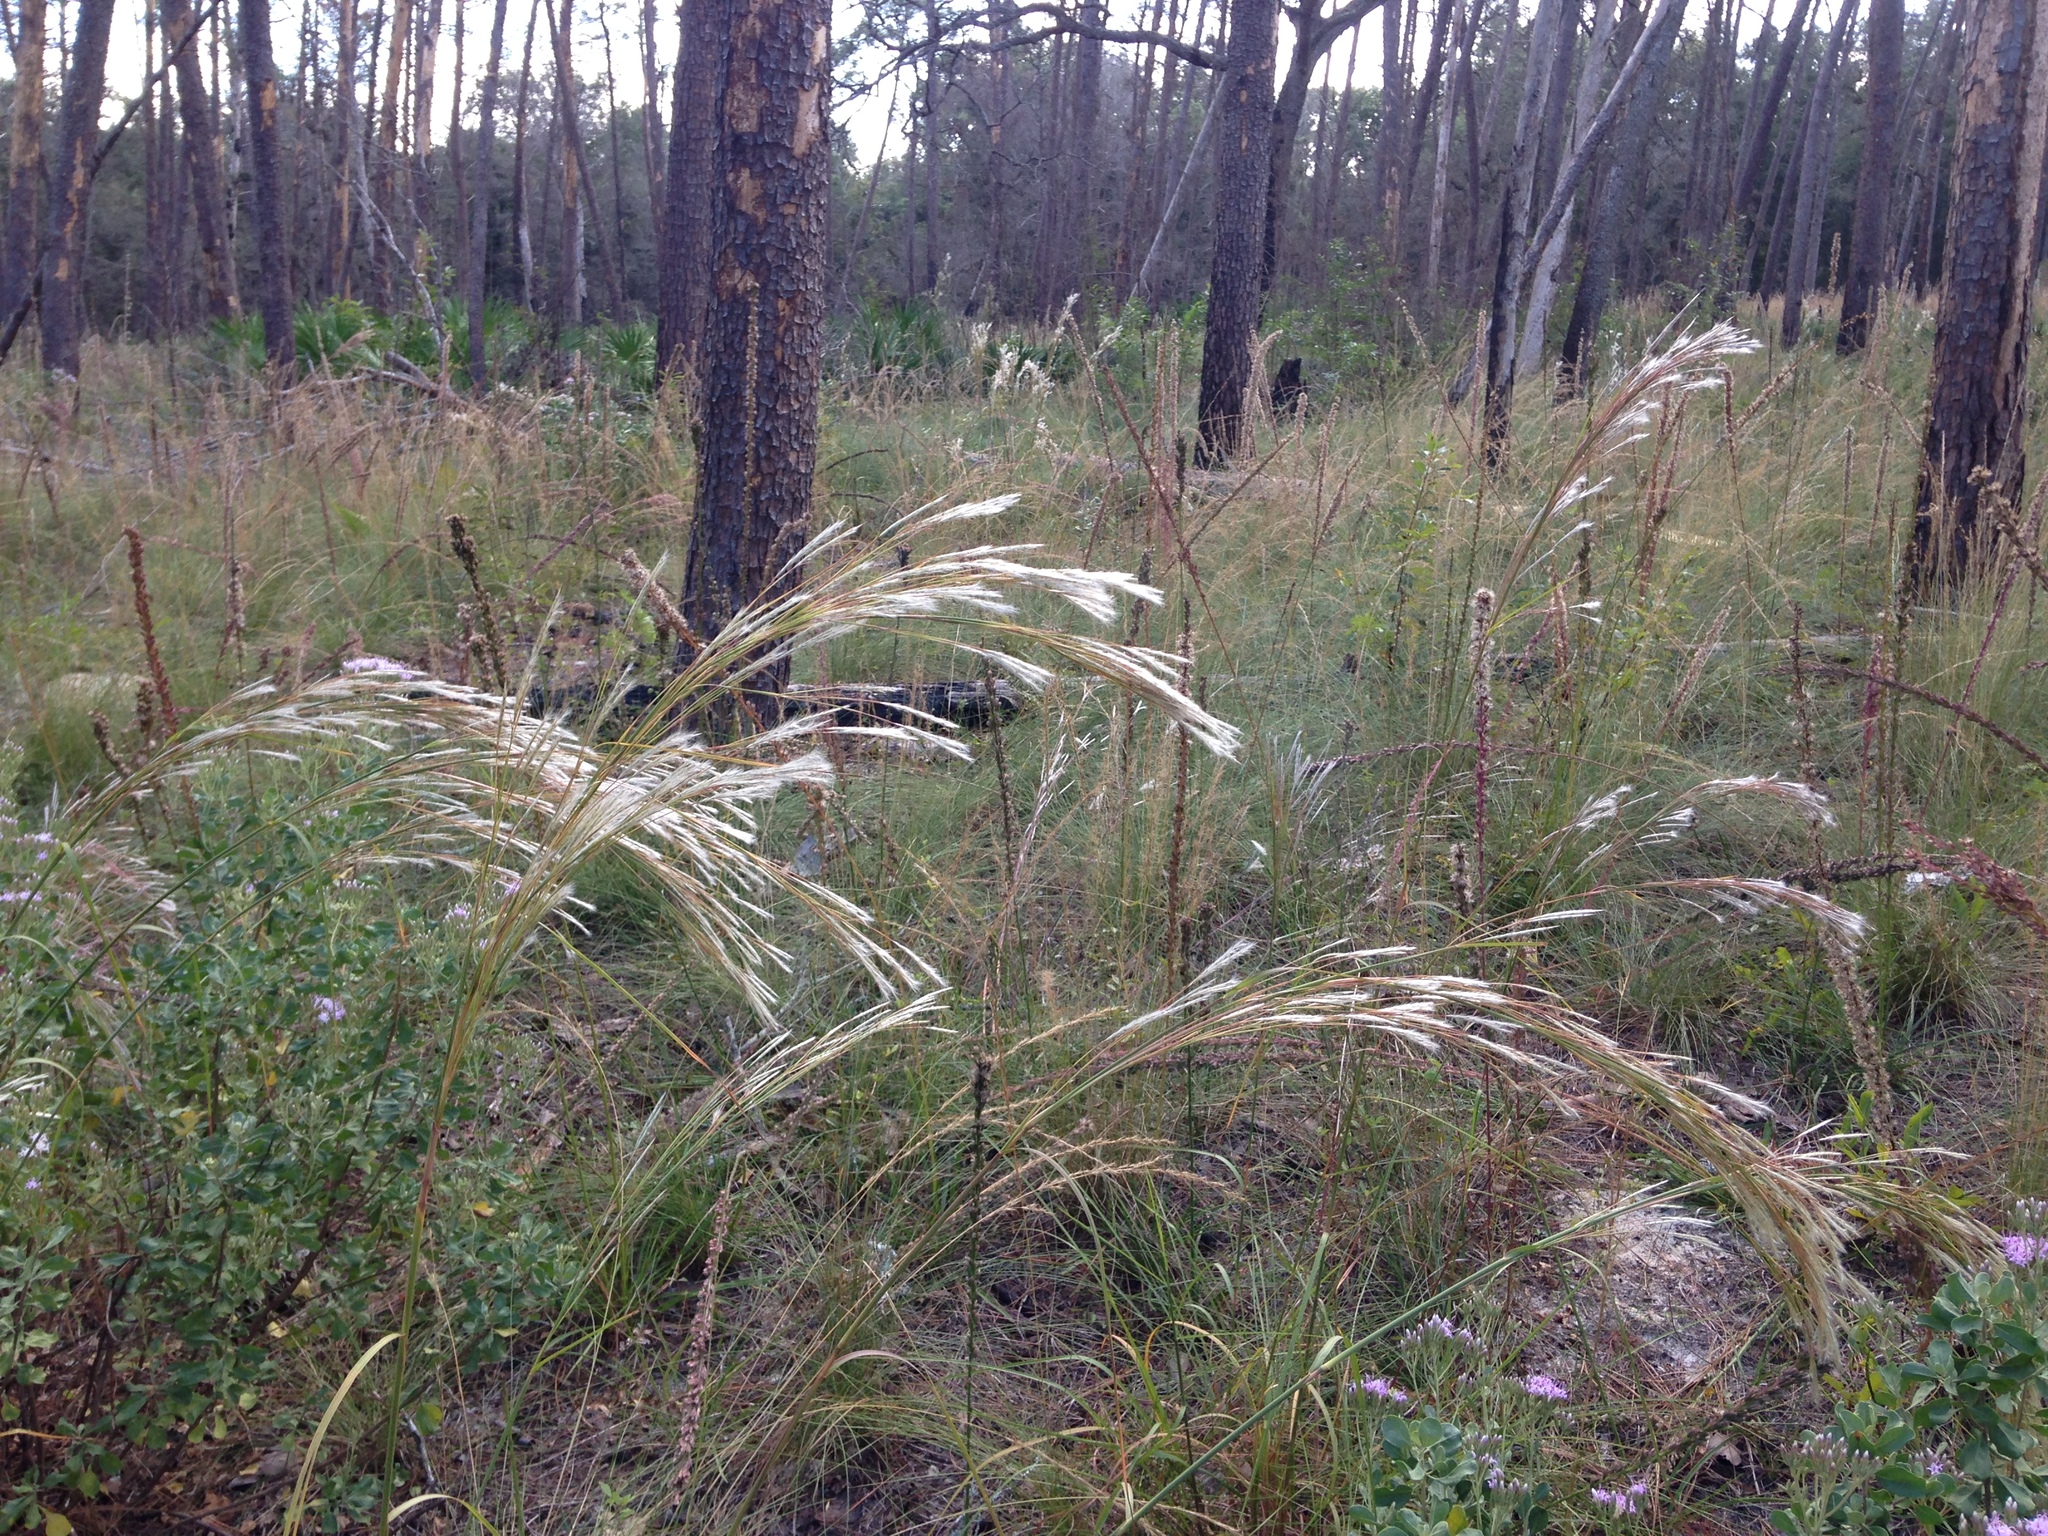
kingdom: Plantae
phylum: Tracheophyta
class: Liliopsida
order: Poales
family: Poaceae
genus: Andropogon
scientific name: Andropogon floridanus
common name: Florida bluestem
